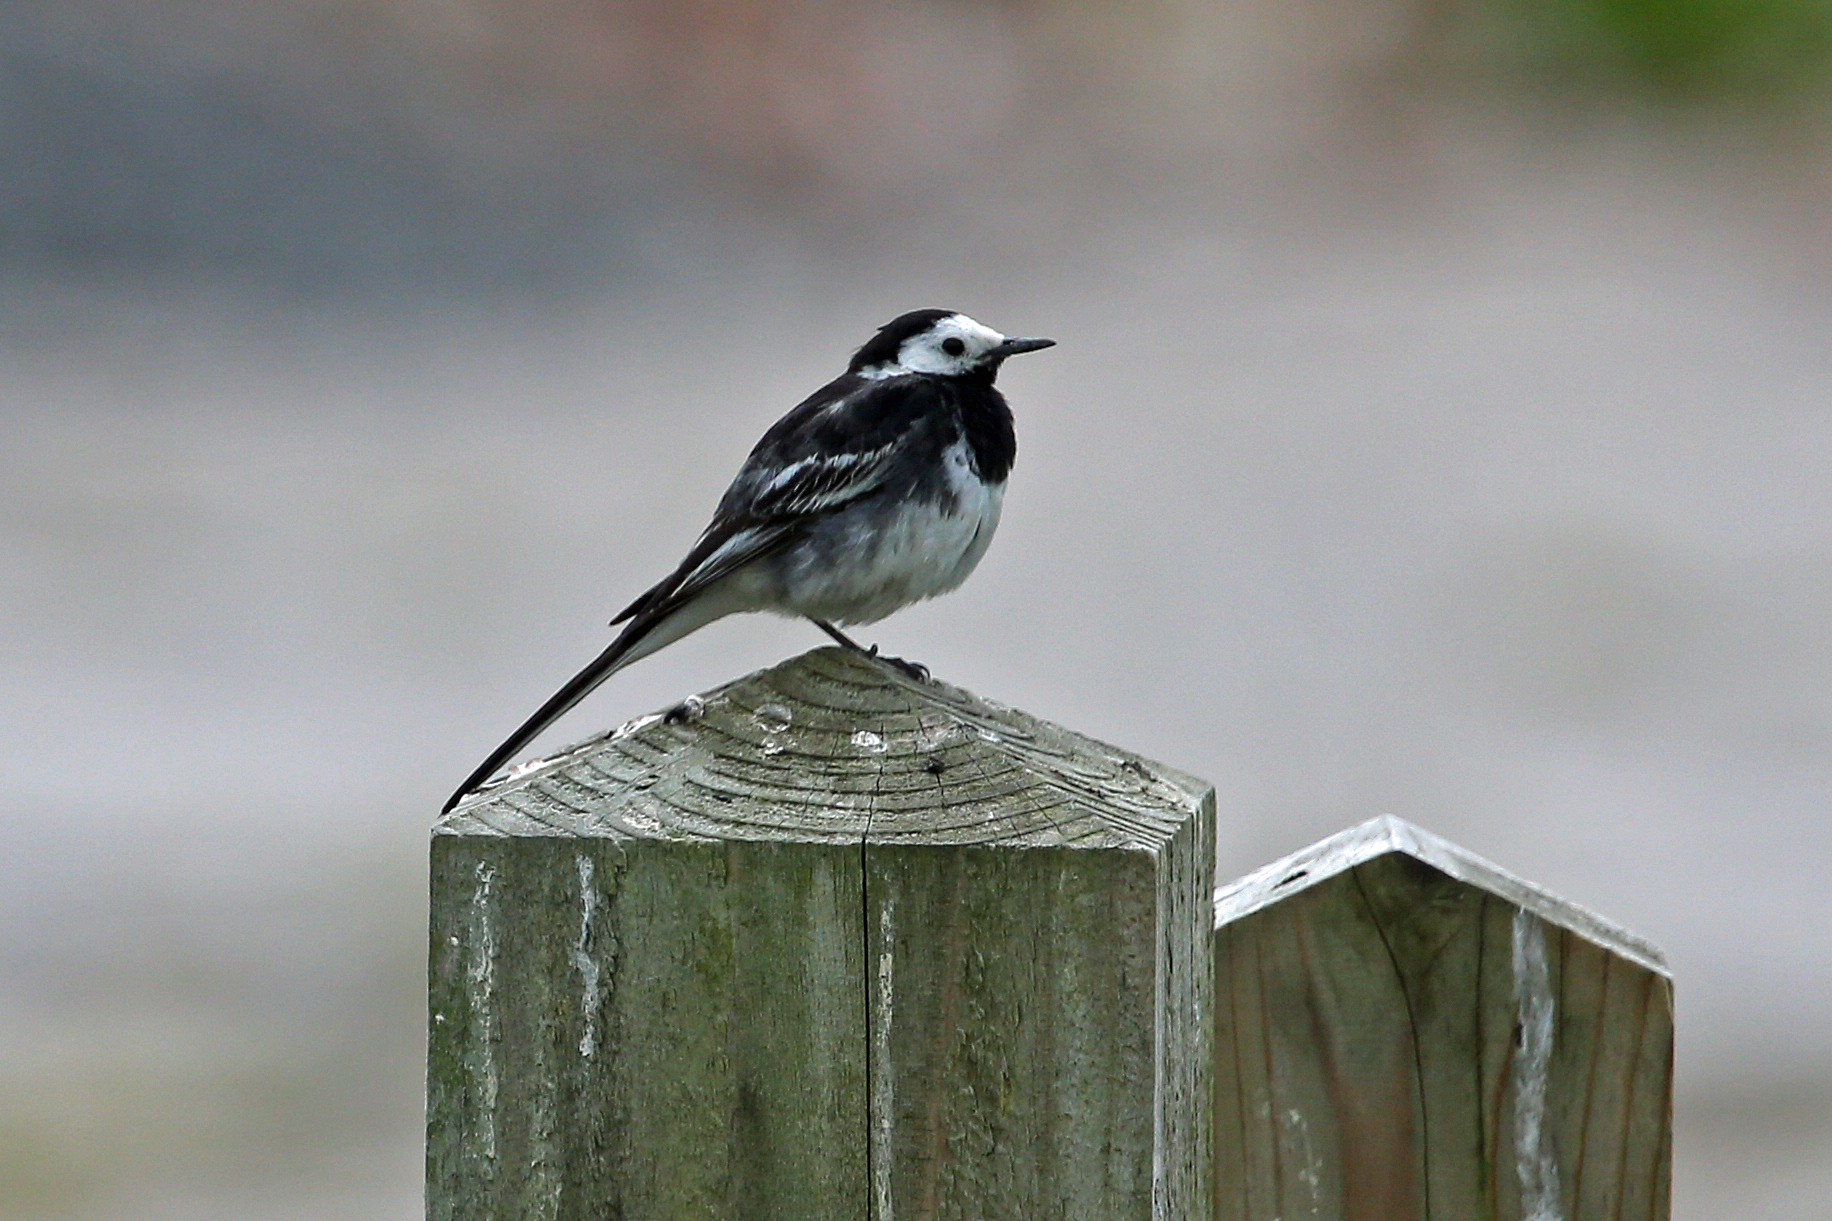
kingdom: Animalia
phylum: Chordata
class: Aves
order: Passeriformes
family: Motacillidae
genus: Motacilla
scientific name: Motacilla alba
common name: White wagtail
